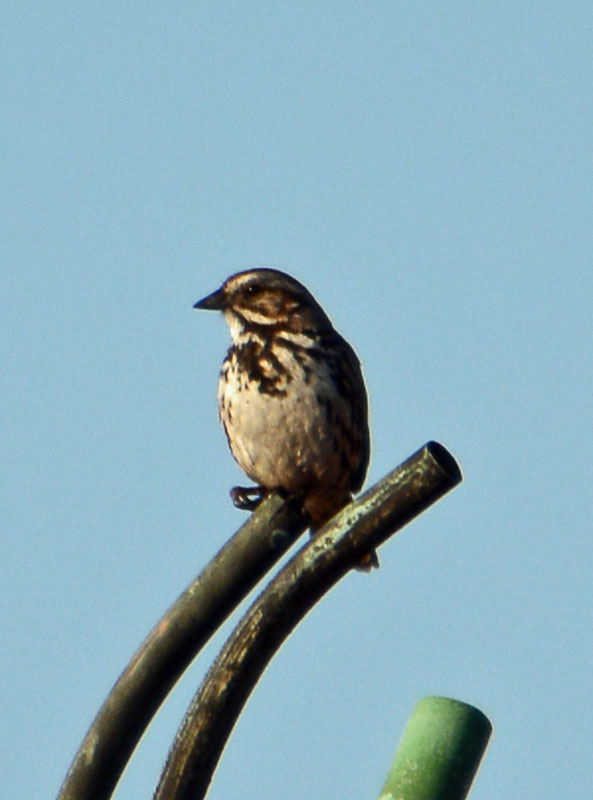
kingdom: Animalia
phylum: Chordata
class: Aves
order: Passeriformes
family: Passerellidae
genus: Melospiza
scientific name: Melospiza melodia
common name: Song sparrow
